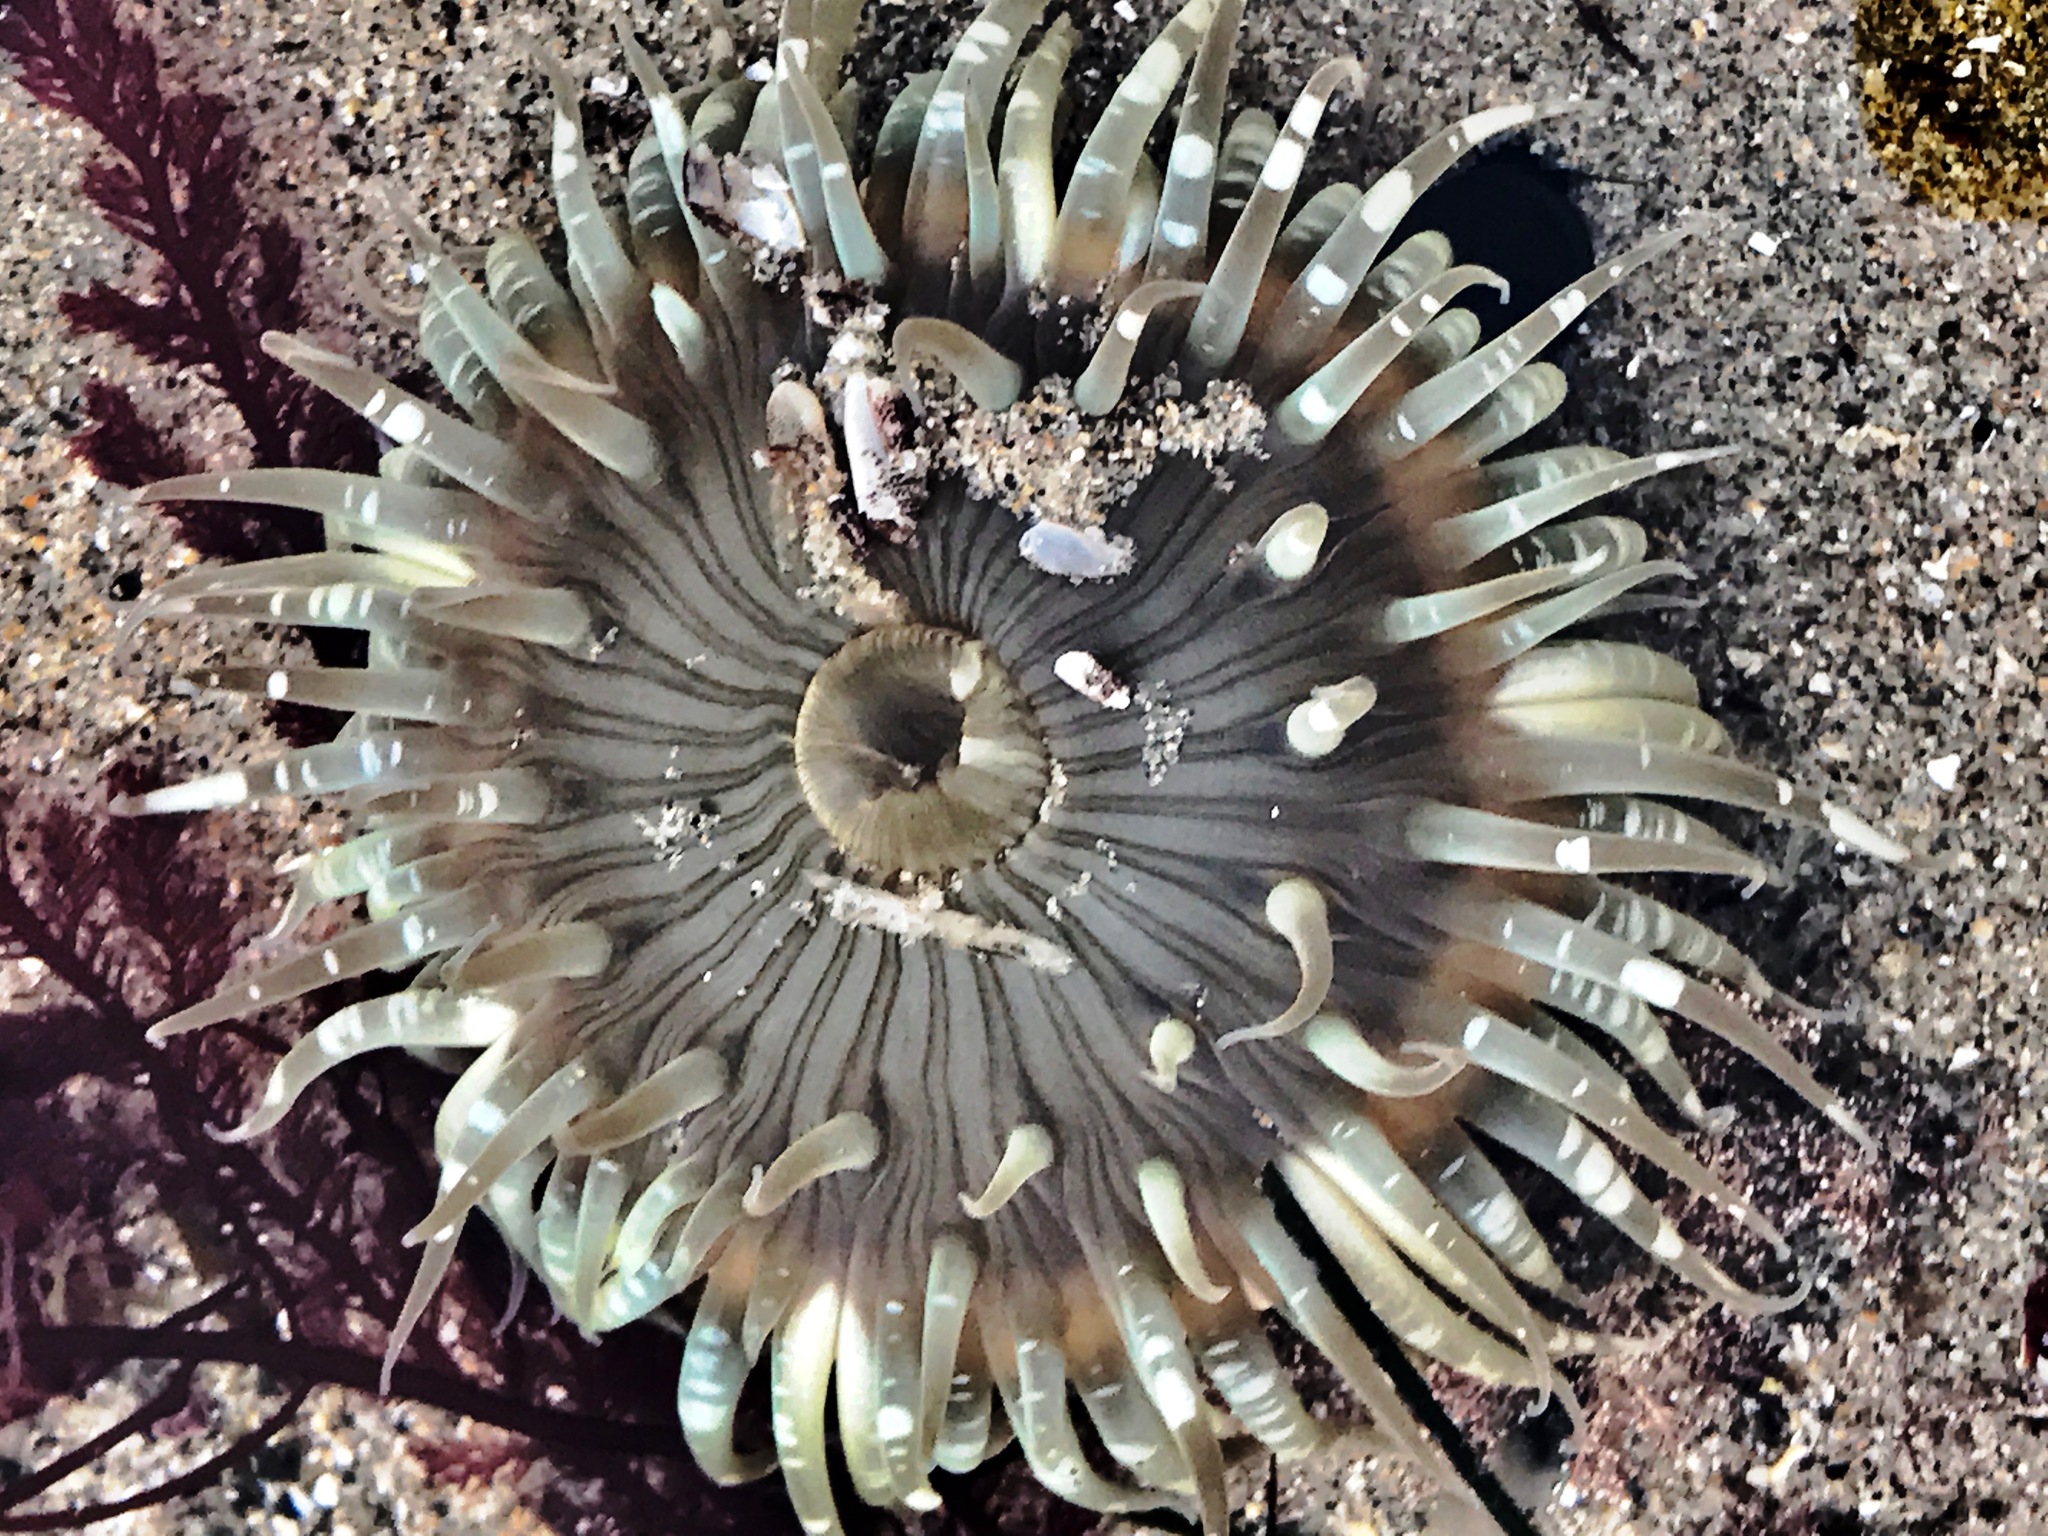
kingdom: Animalia
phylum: Cnidaria
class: Anthozoa
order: Actiniaria
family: Actiniidae
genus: Anthopleura
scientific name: Anthopleura sola
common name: Sun anemone
